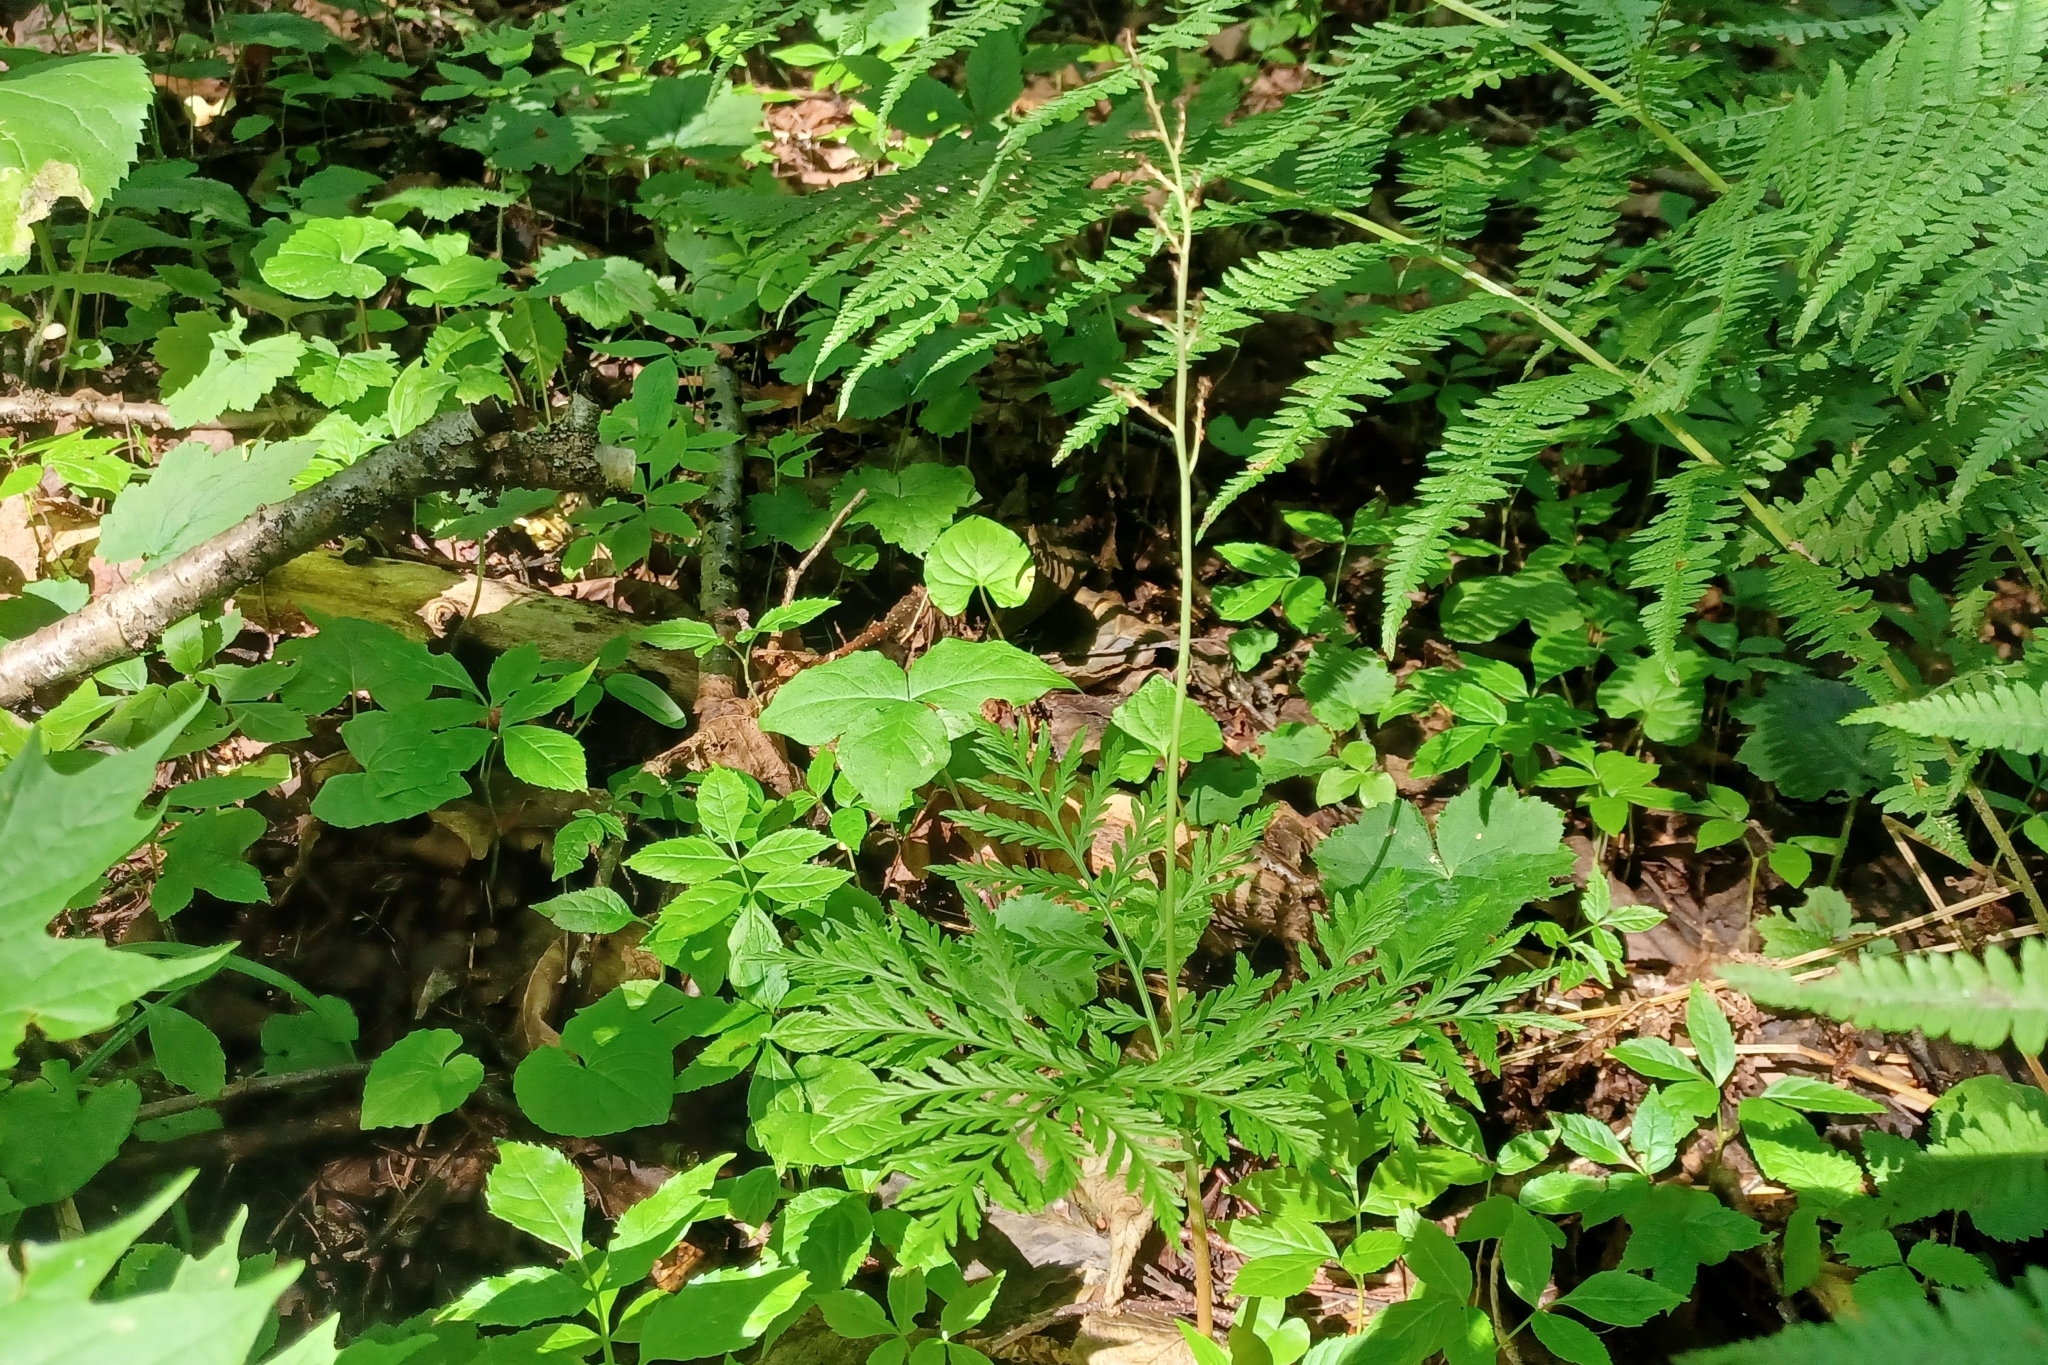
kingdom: Plantae
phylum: Tracheophyta
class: Polypodiopsida
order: Ophioglossales
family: Ophioglossaceae
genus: Botrypus
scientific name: Botrypus virginianus
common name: Common grapefern
